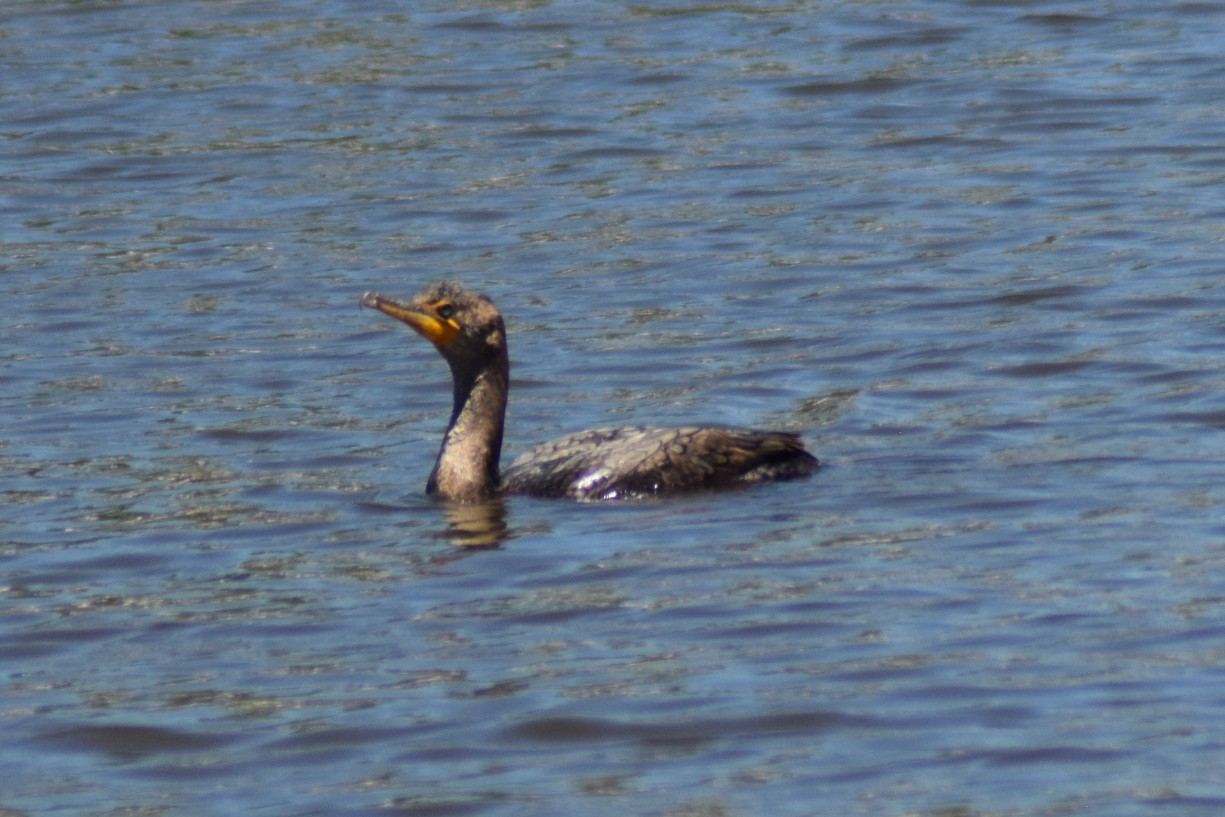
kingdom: Animalia
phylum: Chordata
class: Aves
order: Suliformes
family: Phalacrocoracidae
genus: Phalacrocorax
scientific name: Phalacrocorax auritus
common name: Double-crested cormorant
